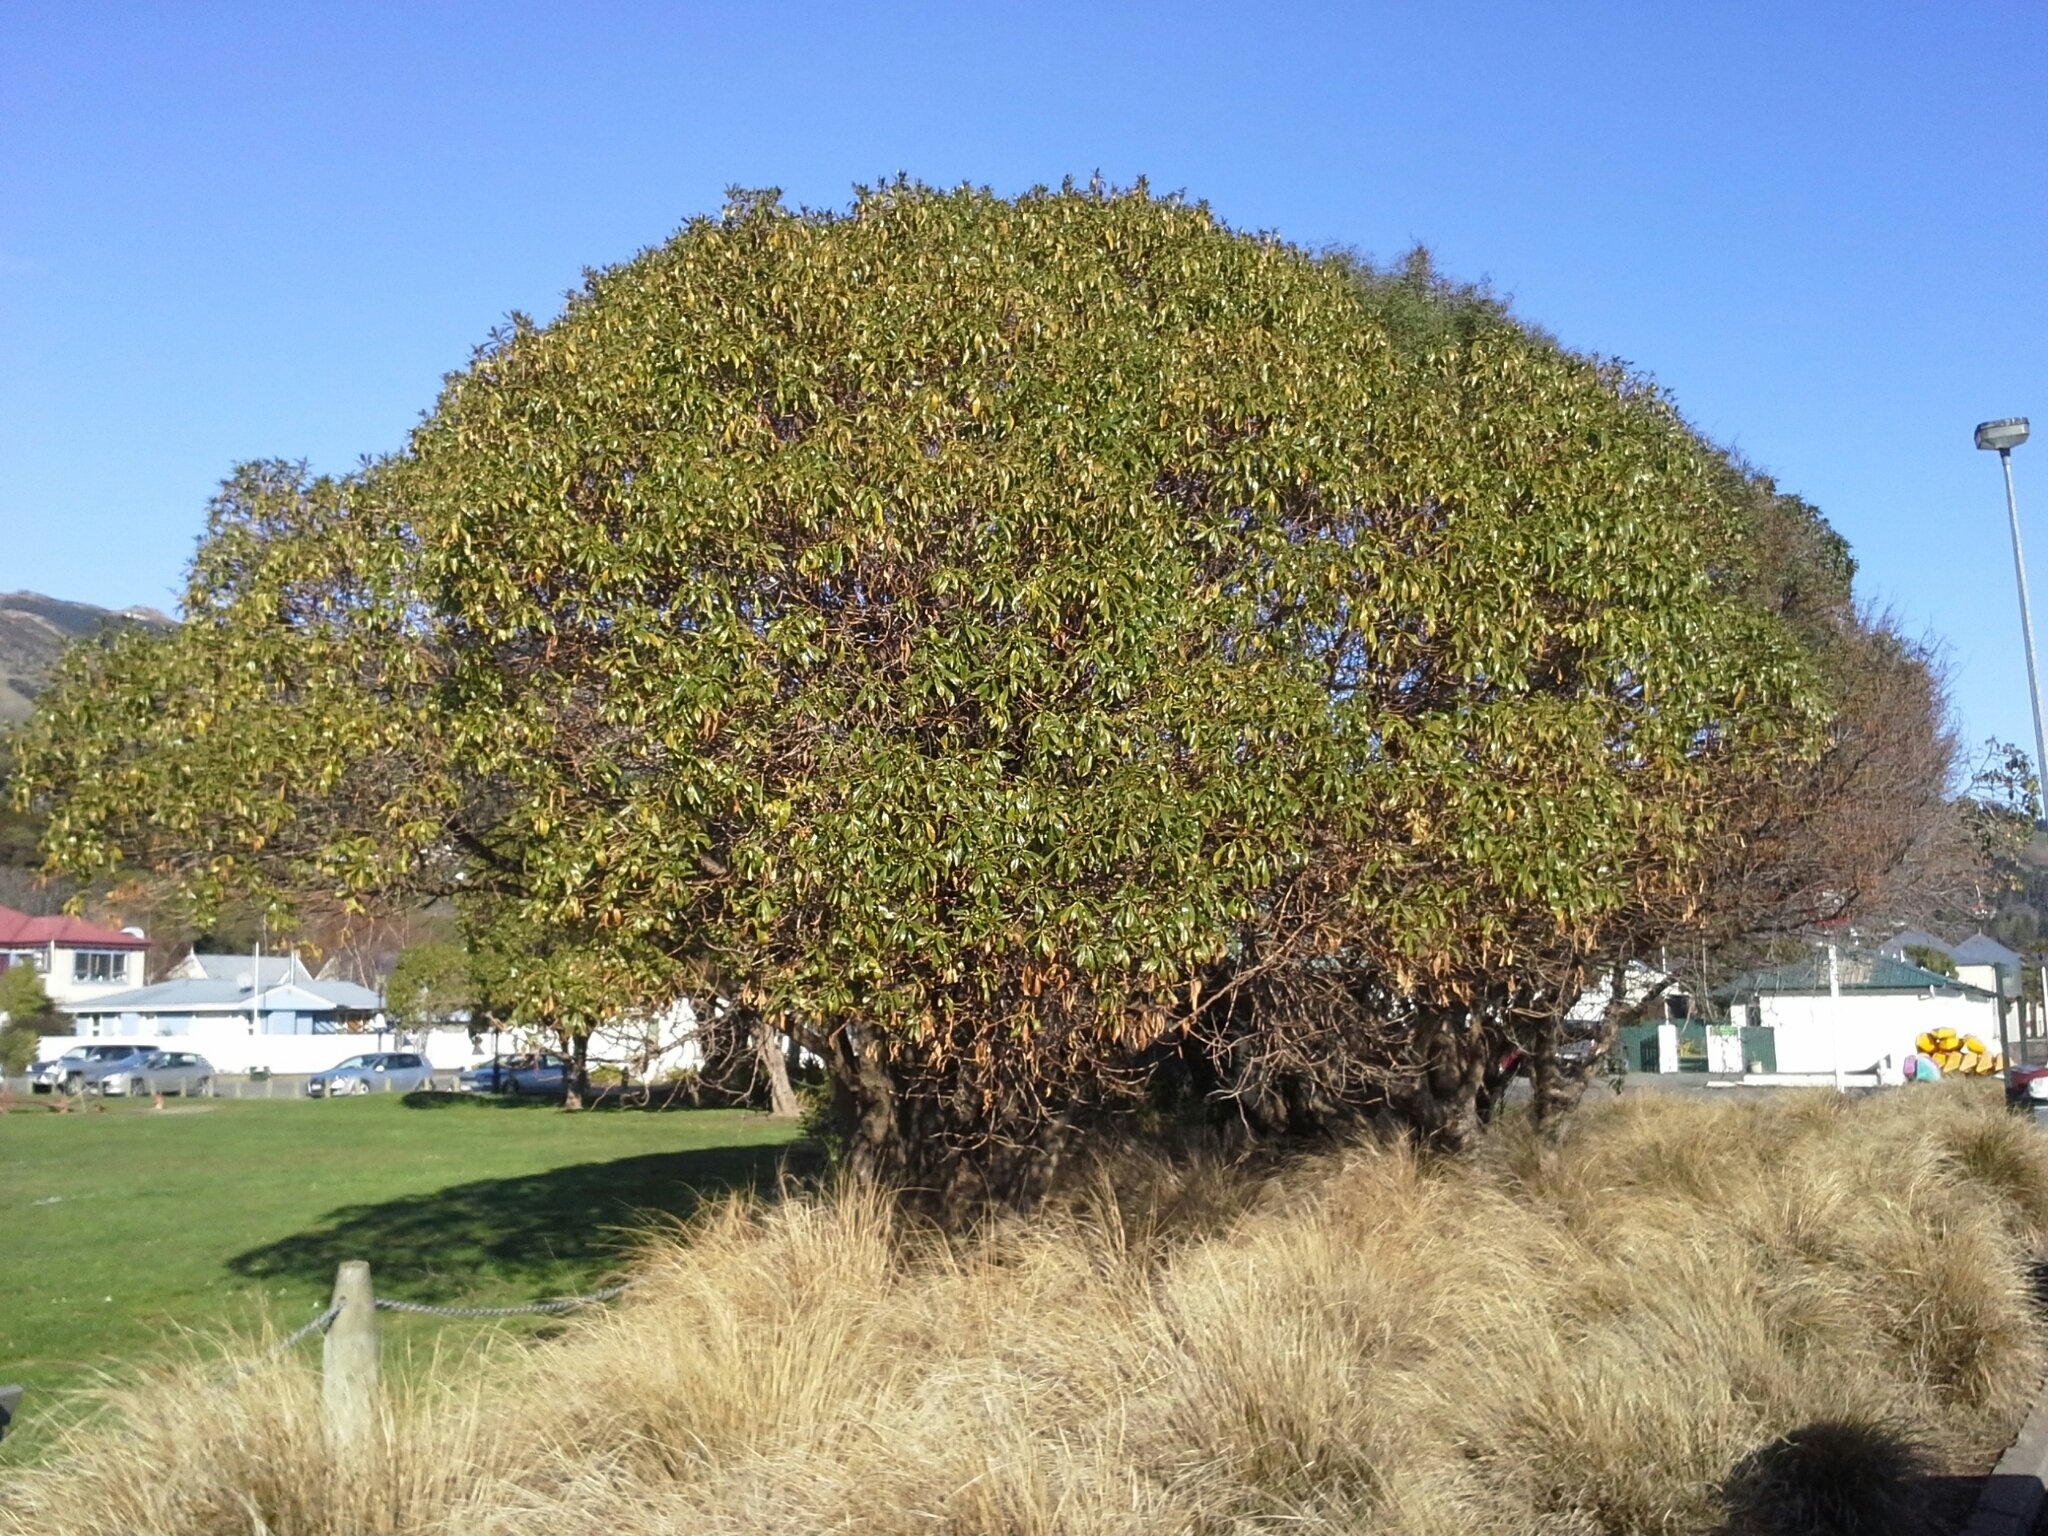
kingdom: Plantae
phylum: Tracheophyta
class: Magnoliopsida
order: Lamiales
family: Scrophulariaceae
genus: Myoporum
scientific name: Myoporum laetum
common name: Ngaio tree
